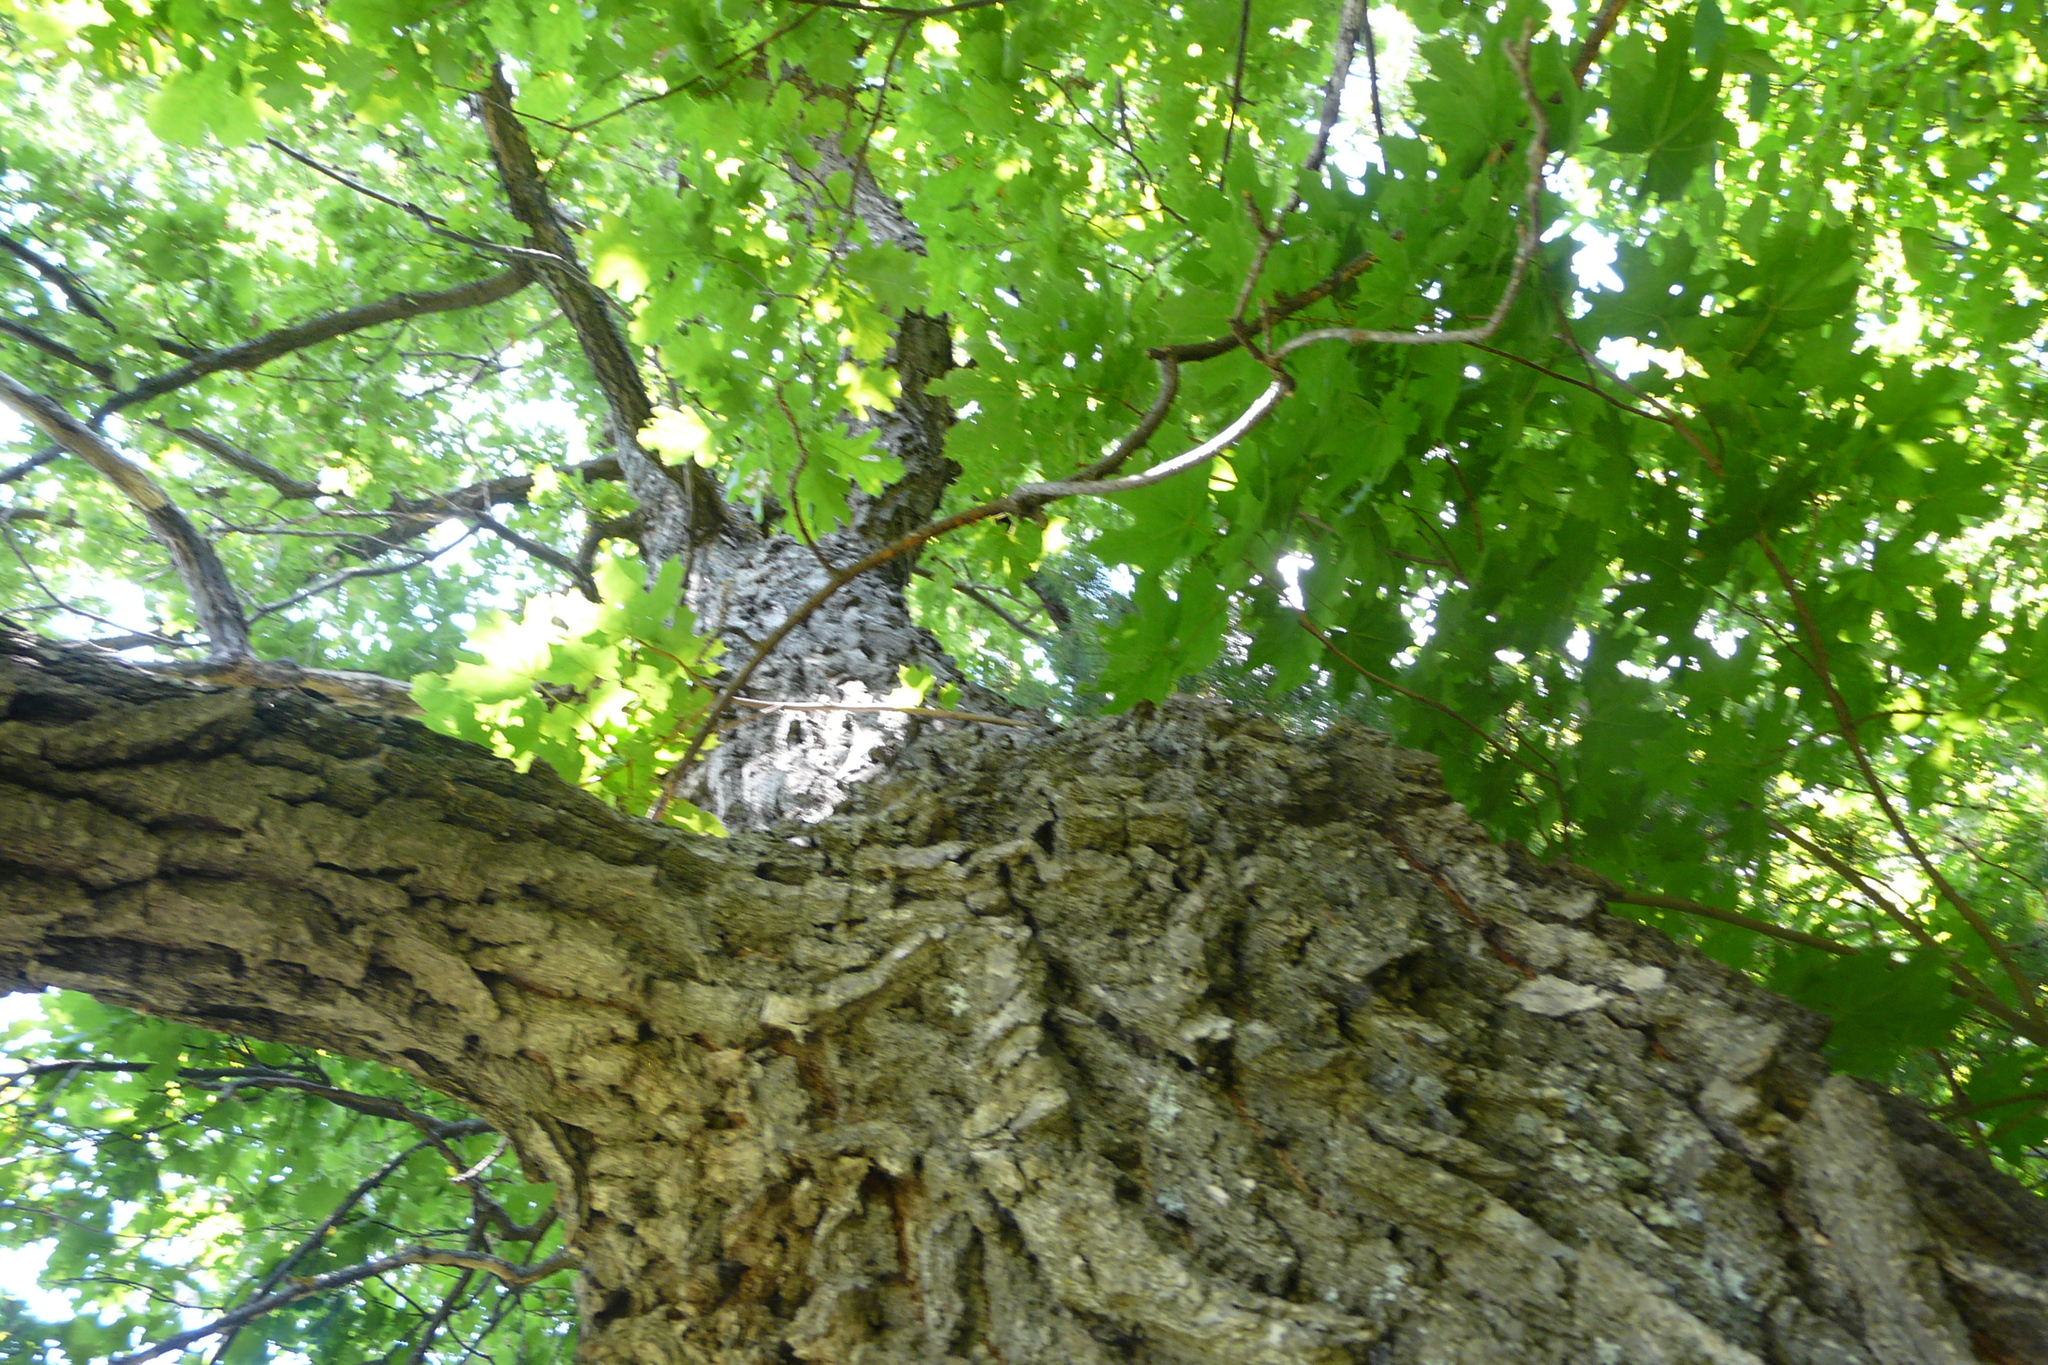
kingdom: Plantae
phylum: Tracheophyta
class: Magnoliopsida
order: Fagales
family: Fagaceae
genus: Quercus
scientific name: Quercus robur
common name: Pedunculate oak
